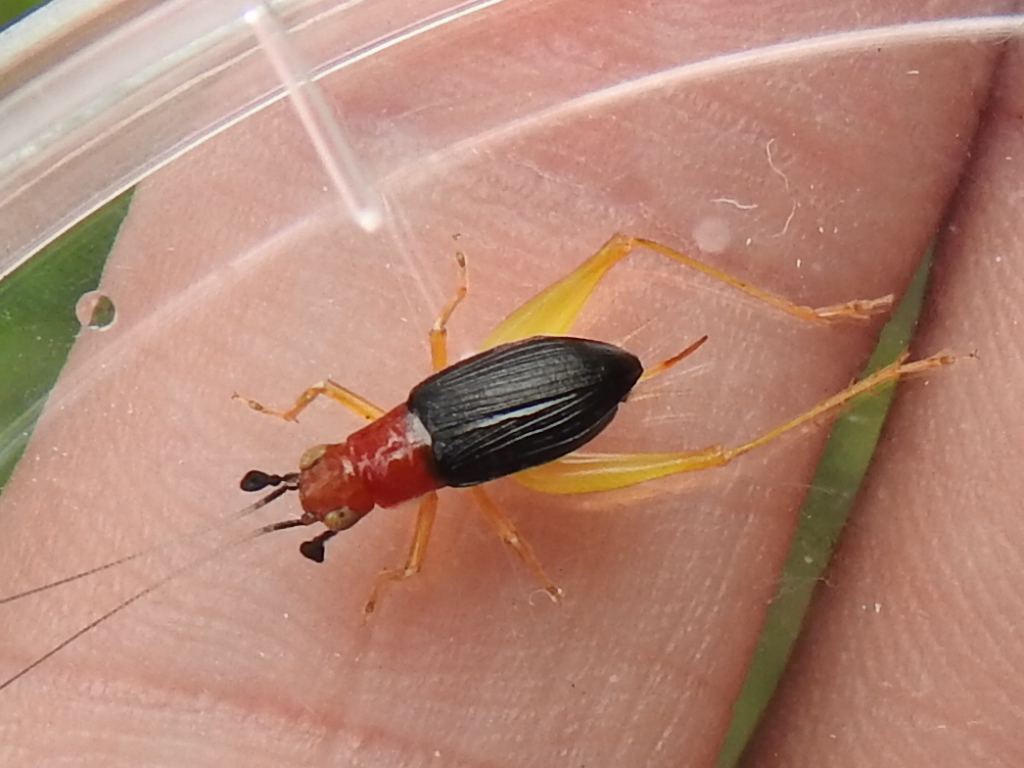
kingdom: Animalia
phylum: Arthropoda
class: Insecta
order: Orthoptera
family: Trigonidiidae
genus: Phyllopalpus
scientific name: Phyllopalpus pulchellus
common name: Handsome trig
